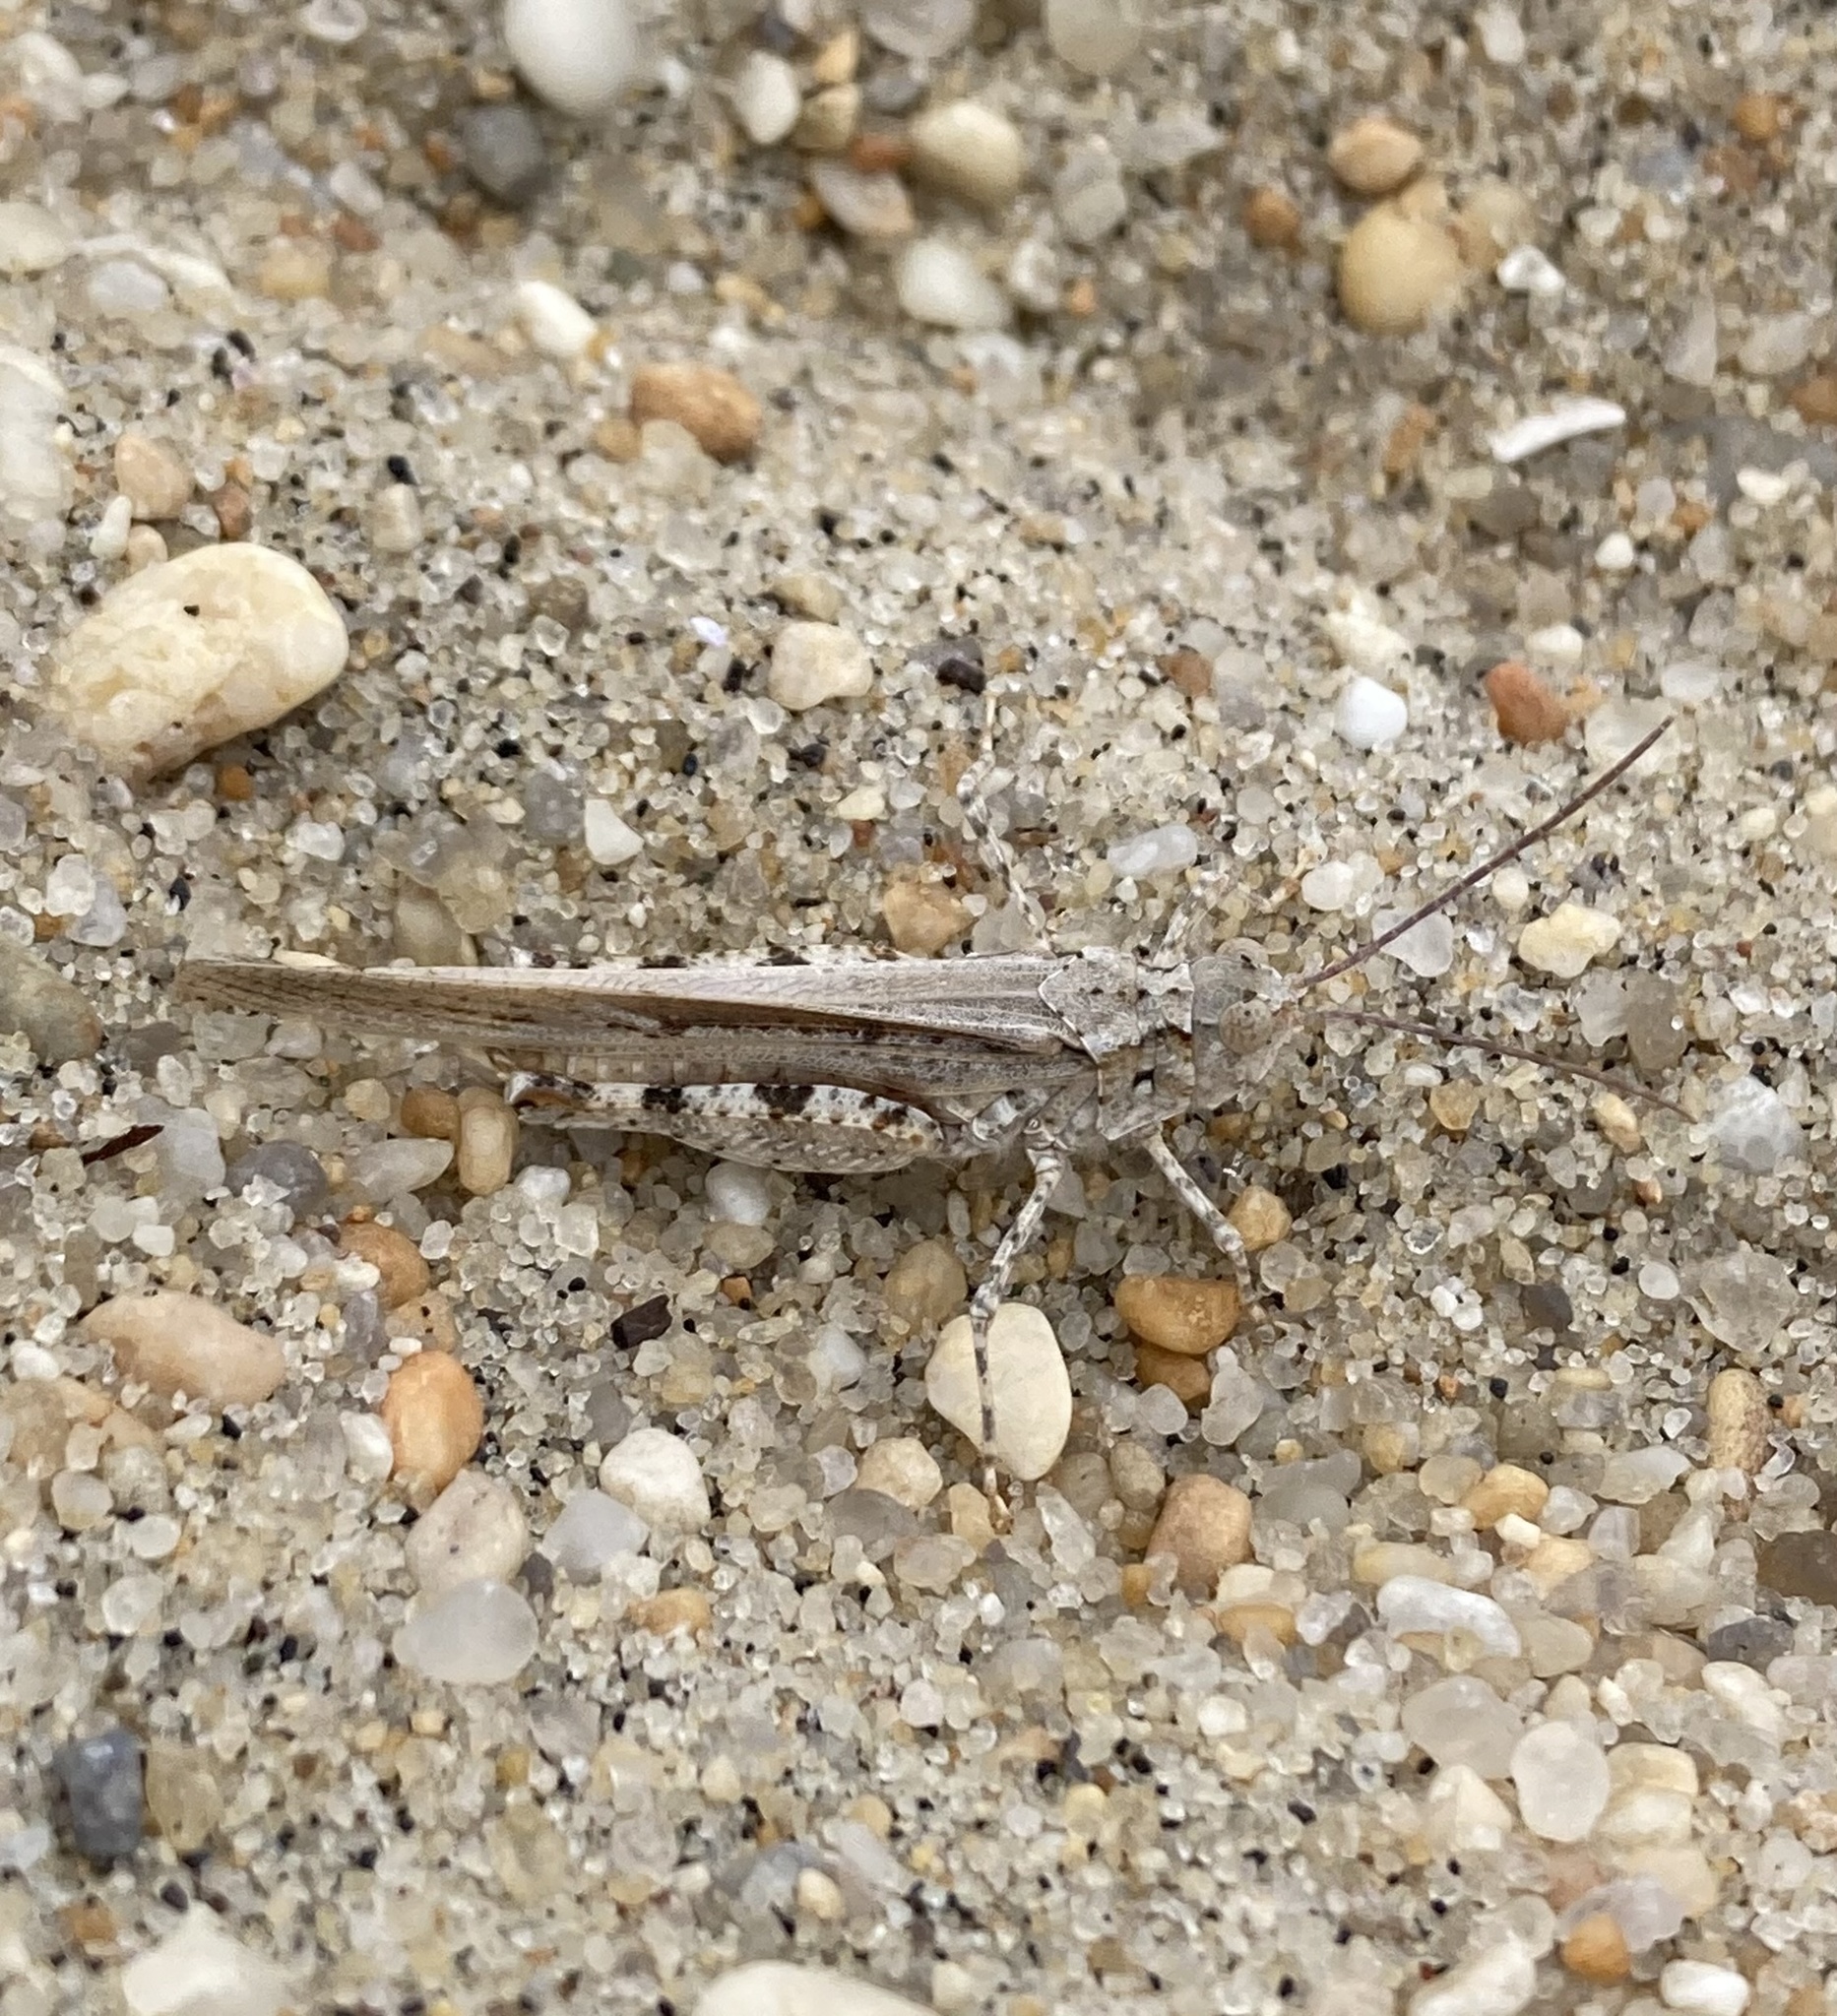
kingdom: Animalia
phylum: Arthropoda
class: Insecta
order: Orthoptera
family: Acrididae
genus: Trimerotropis
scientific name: Trimerotropis maritima
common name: Seaside locust
